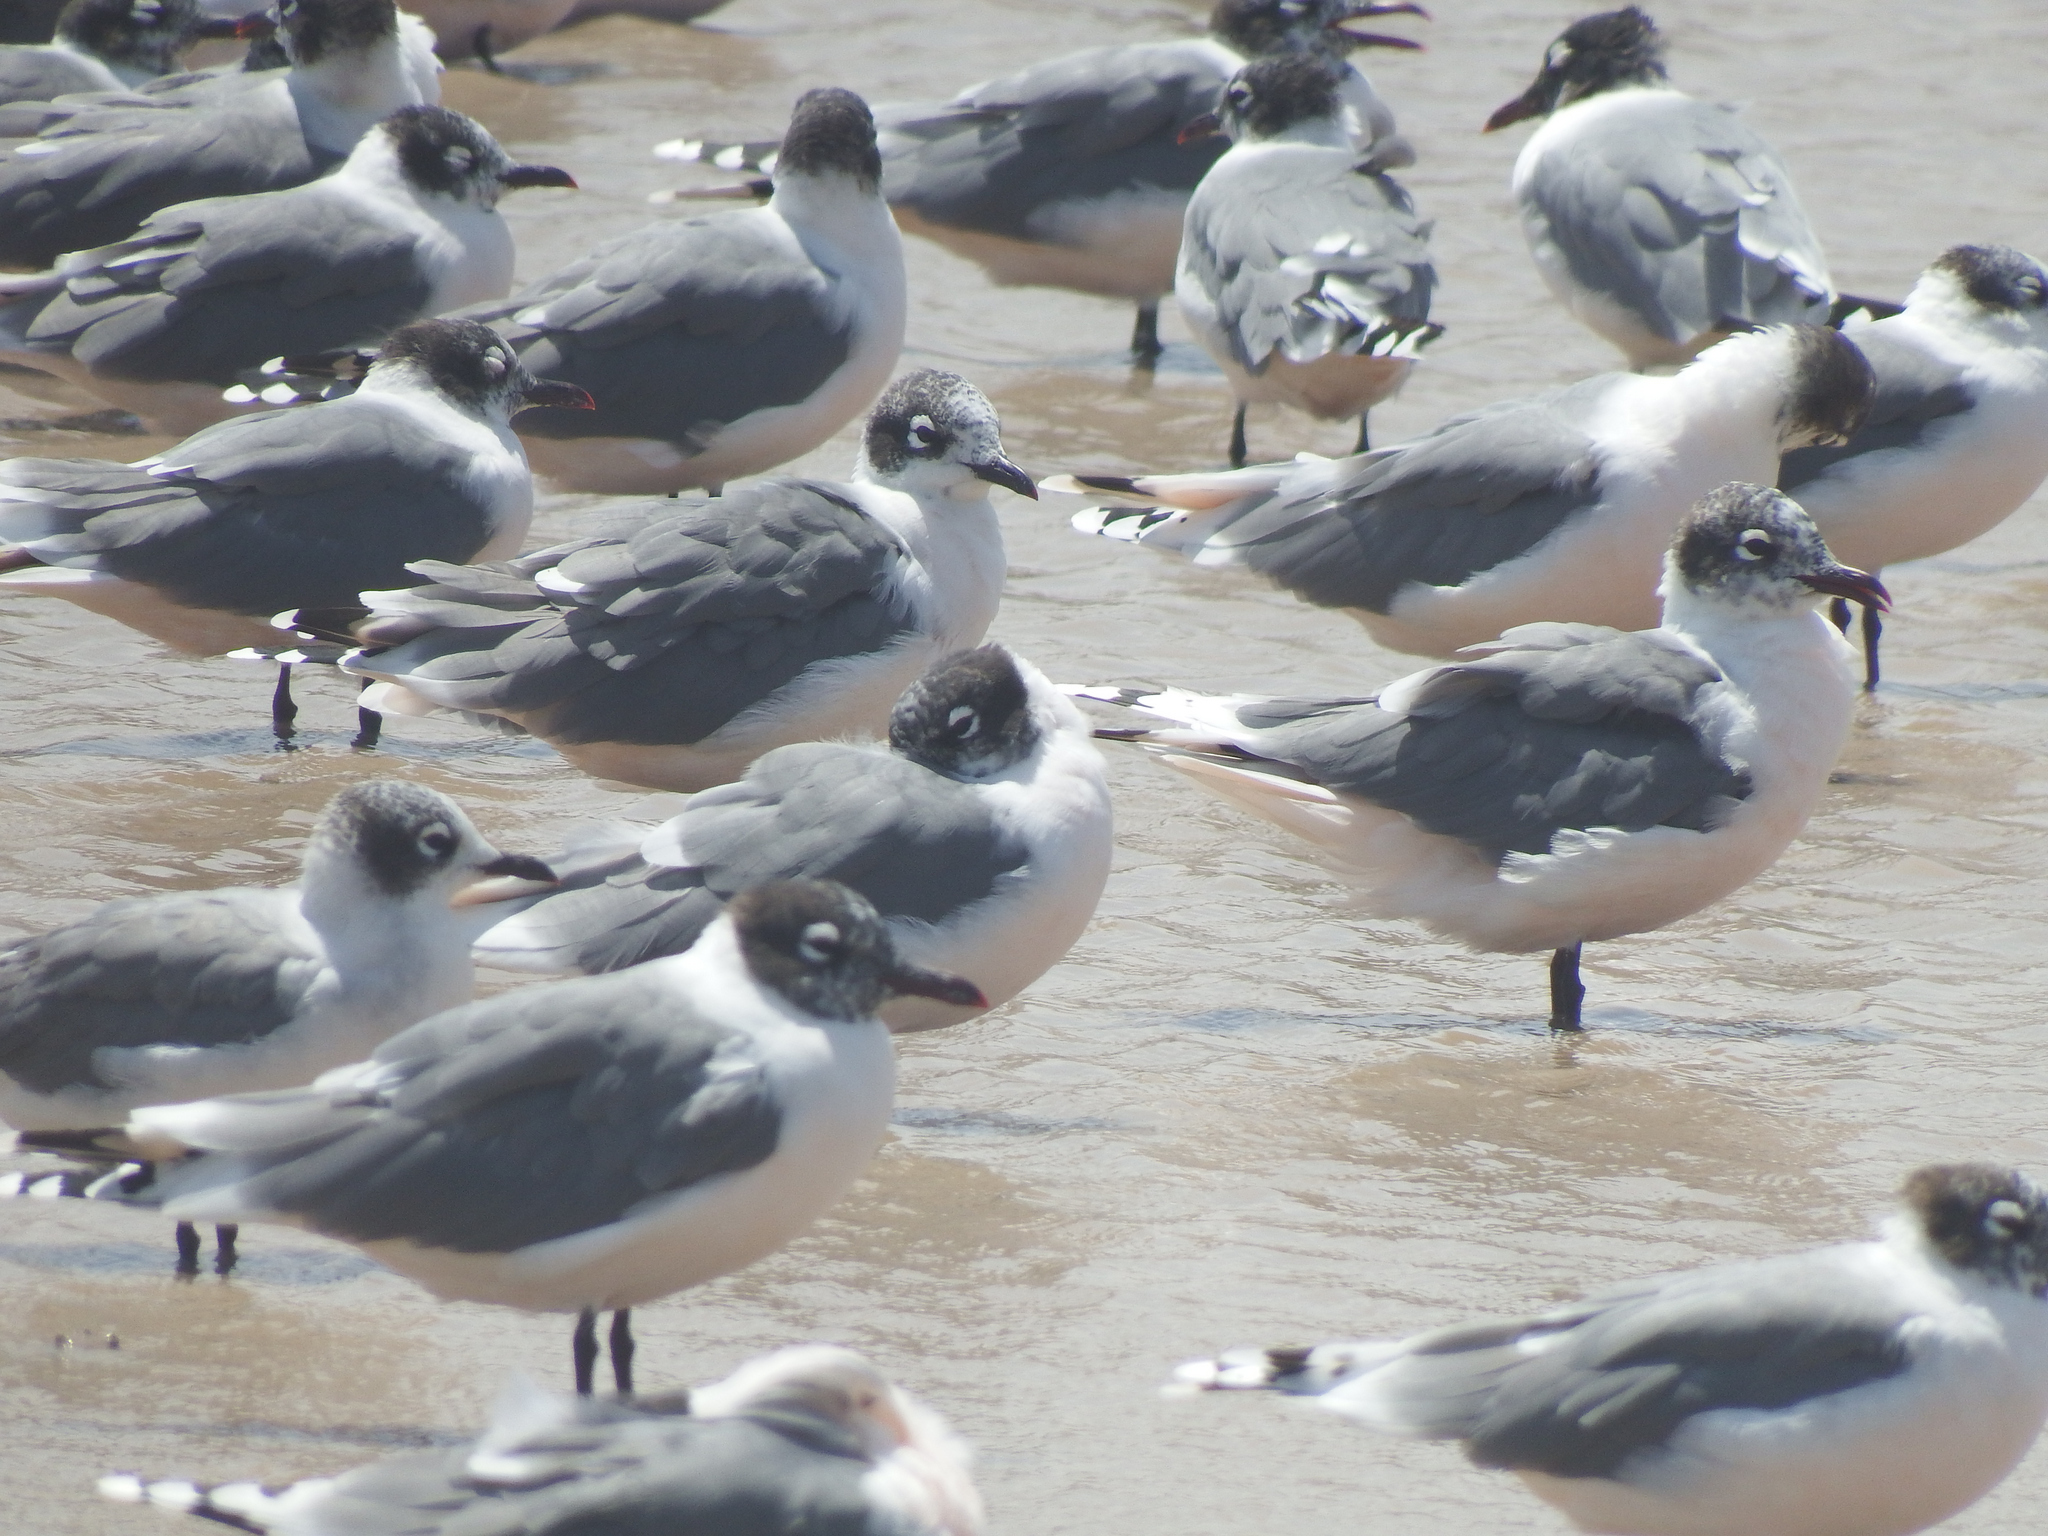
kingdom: Animalia
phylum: Chordata
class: Aves
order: Charadriiformes
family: Laridae
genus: Leucophaeus
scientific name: Leucophaeus pipixcan
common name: Franklin's gull
